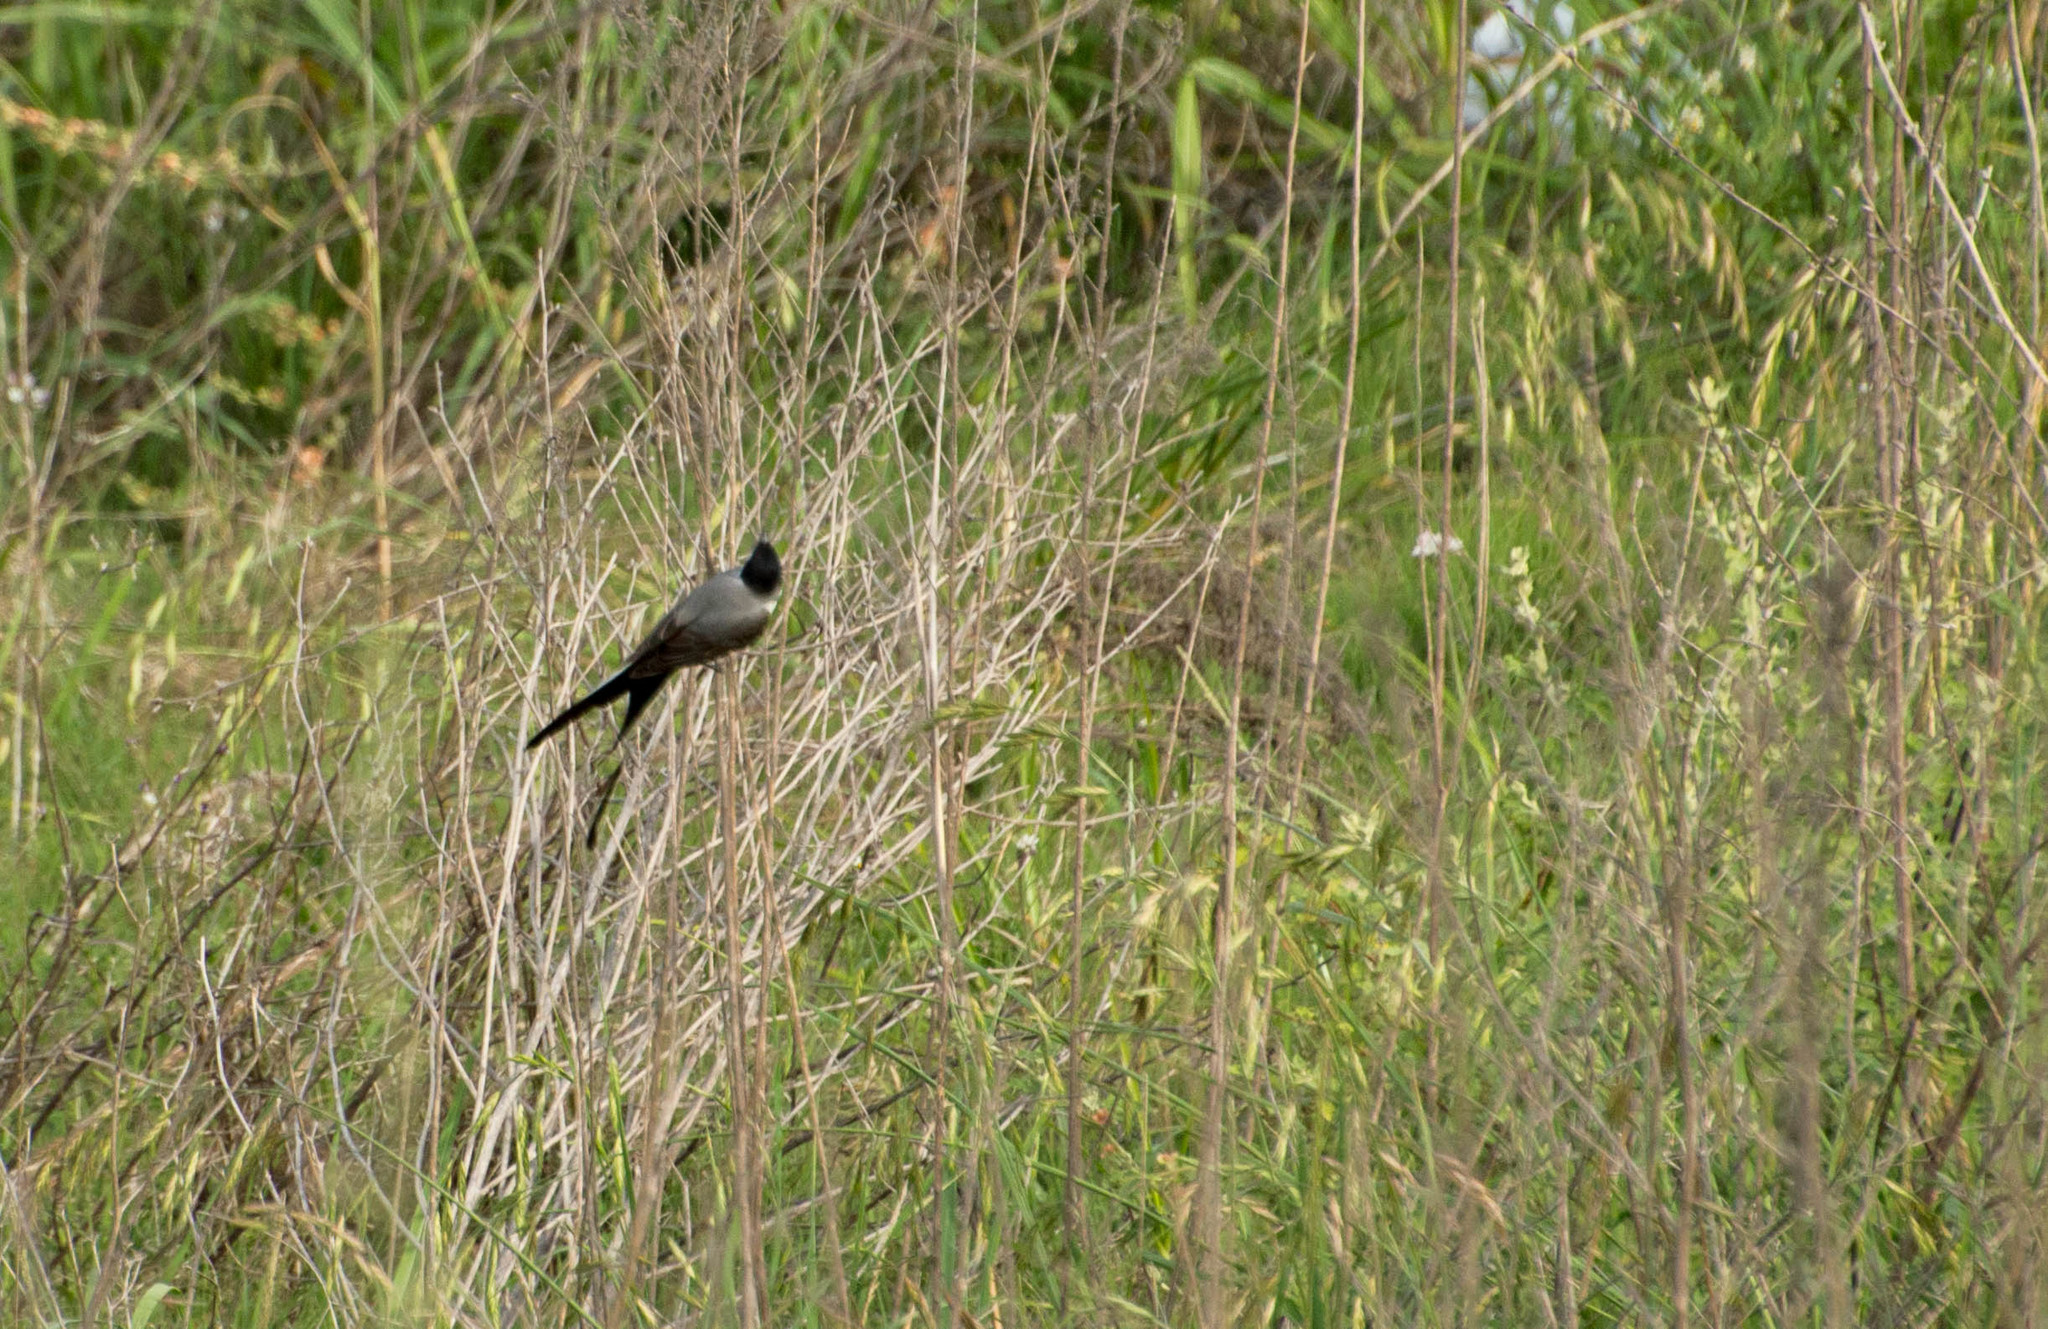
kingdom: Animalia
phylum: Chordata
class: Aves
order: Passeriformes
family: Tyrannidae
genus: Tyrannus
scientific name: Tyrannus savana
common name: Fork-tailed flycatcher
